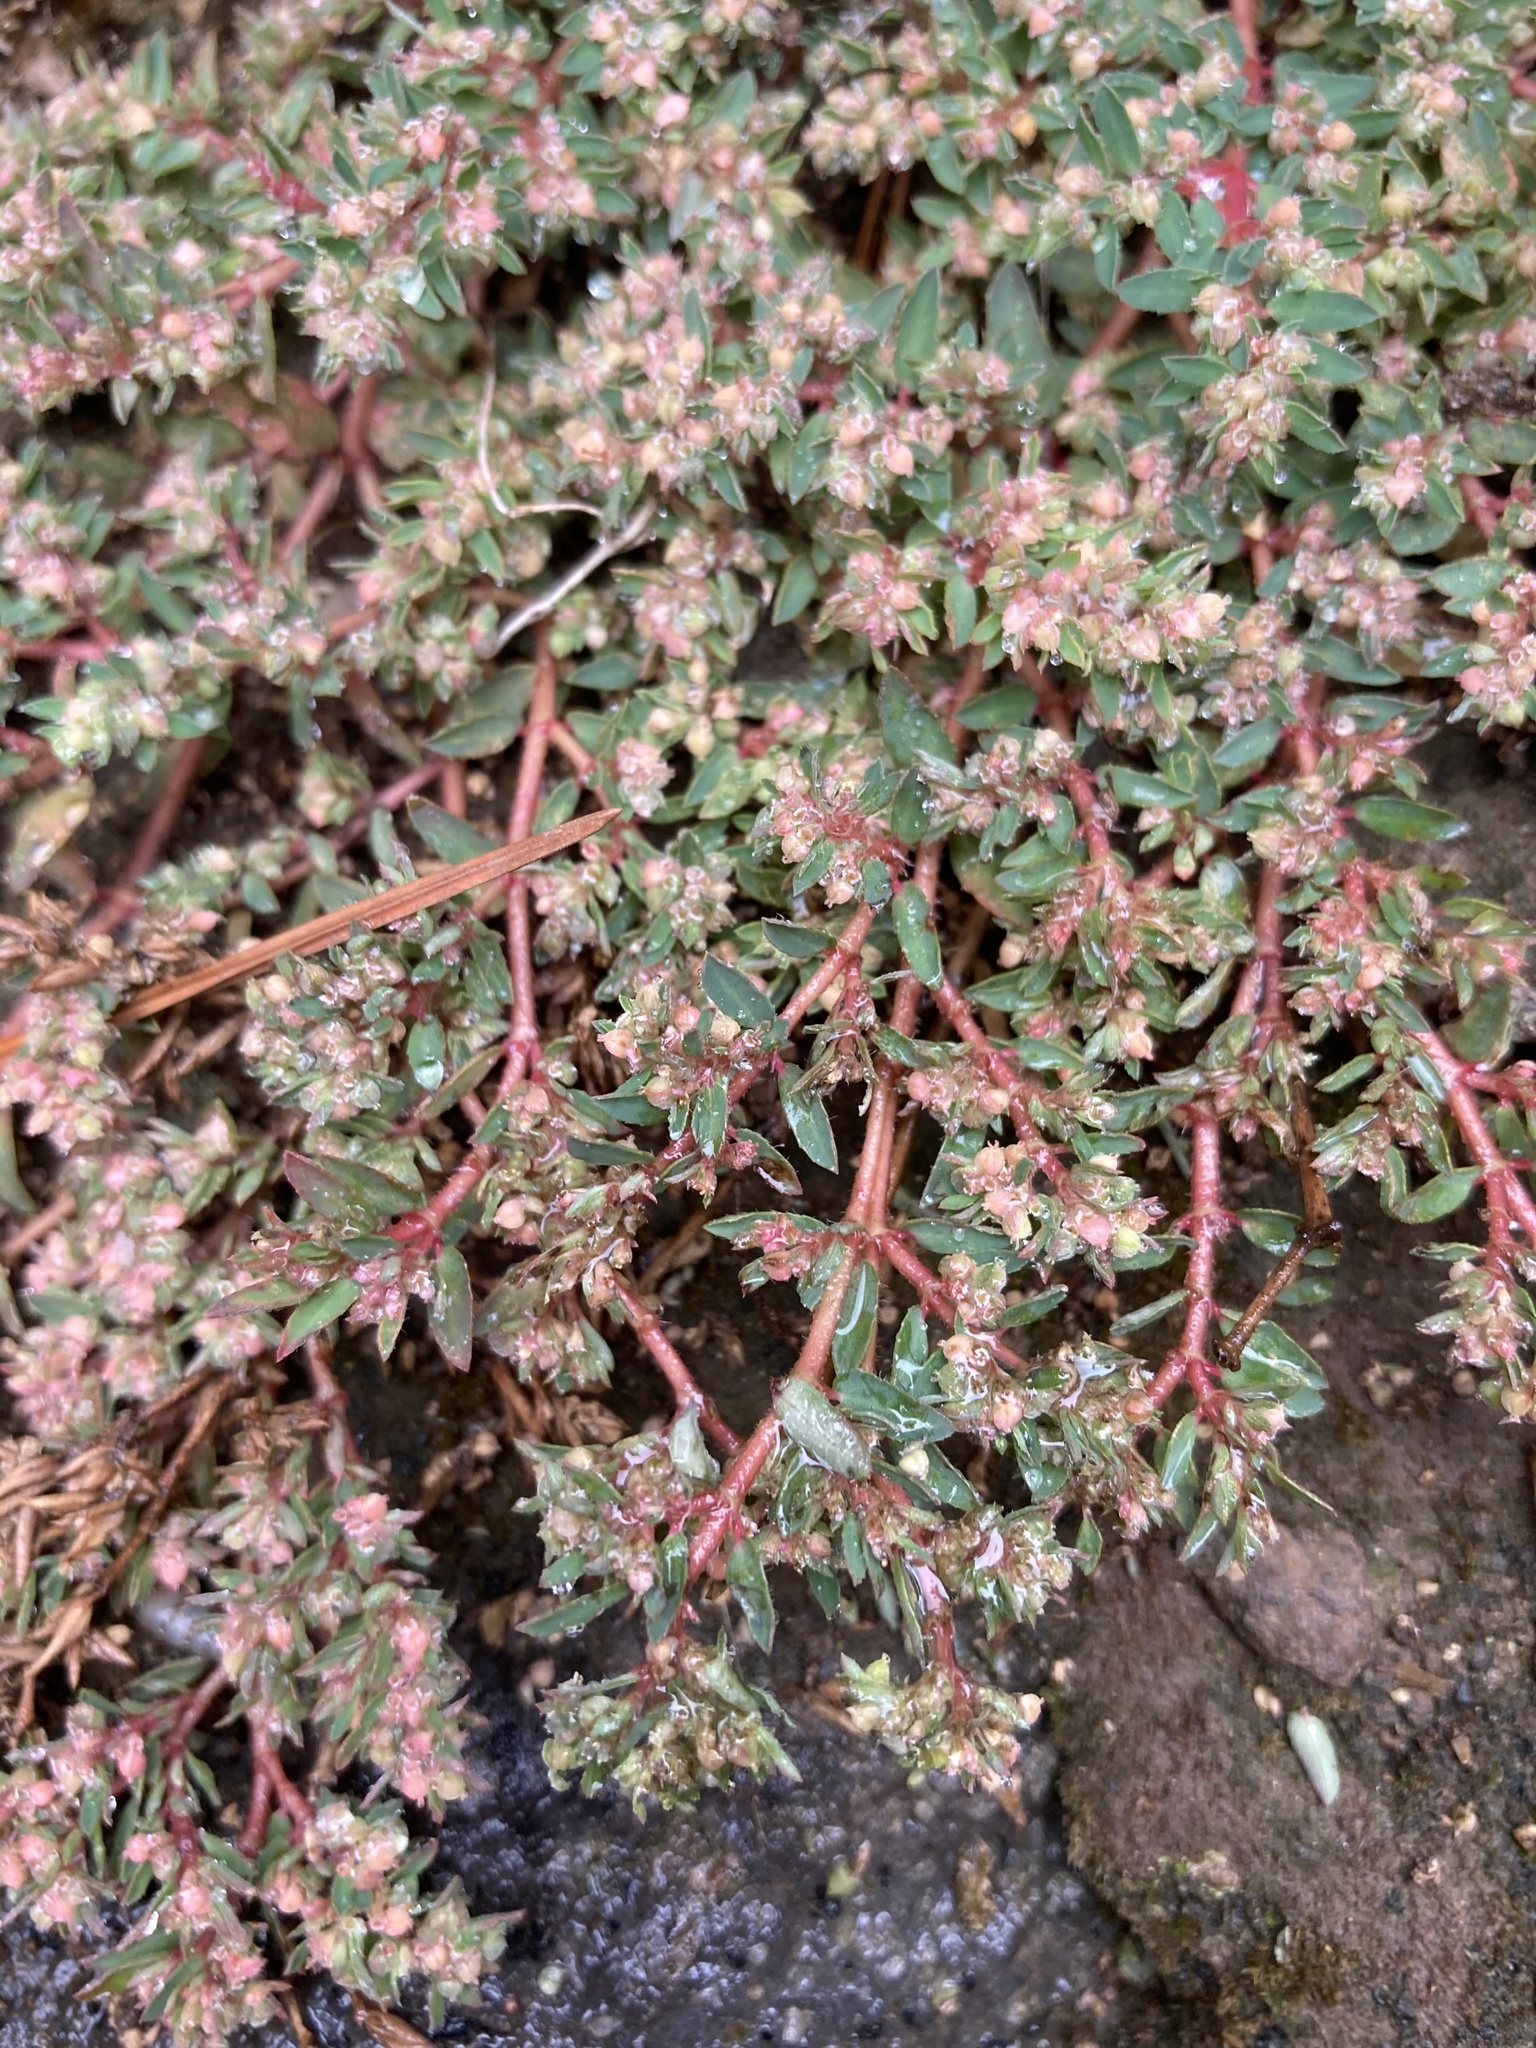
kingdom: Plantae
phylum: Tracheophyta
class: Magnoliopsida
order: Malpighiales
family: Euphorbiaceae
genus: Euphorbia
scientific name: Euphorbia maculata
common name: Spotted spurge
